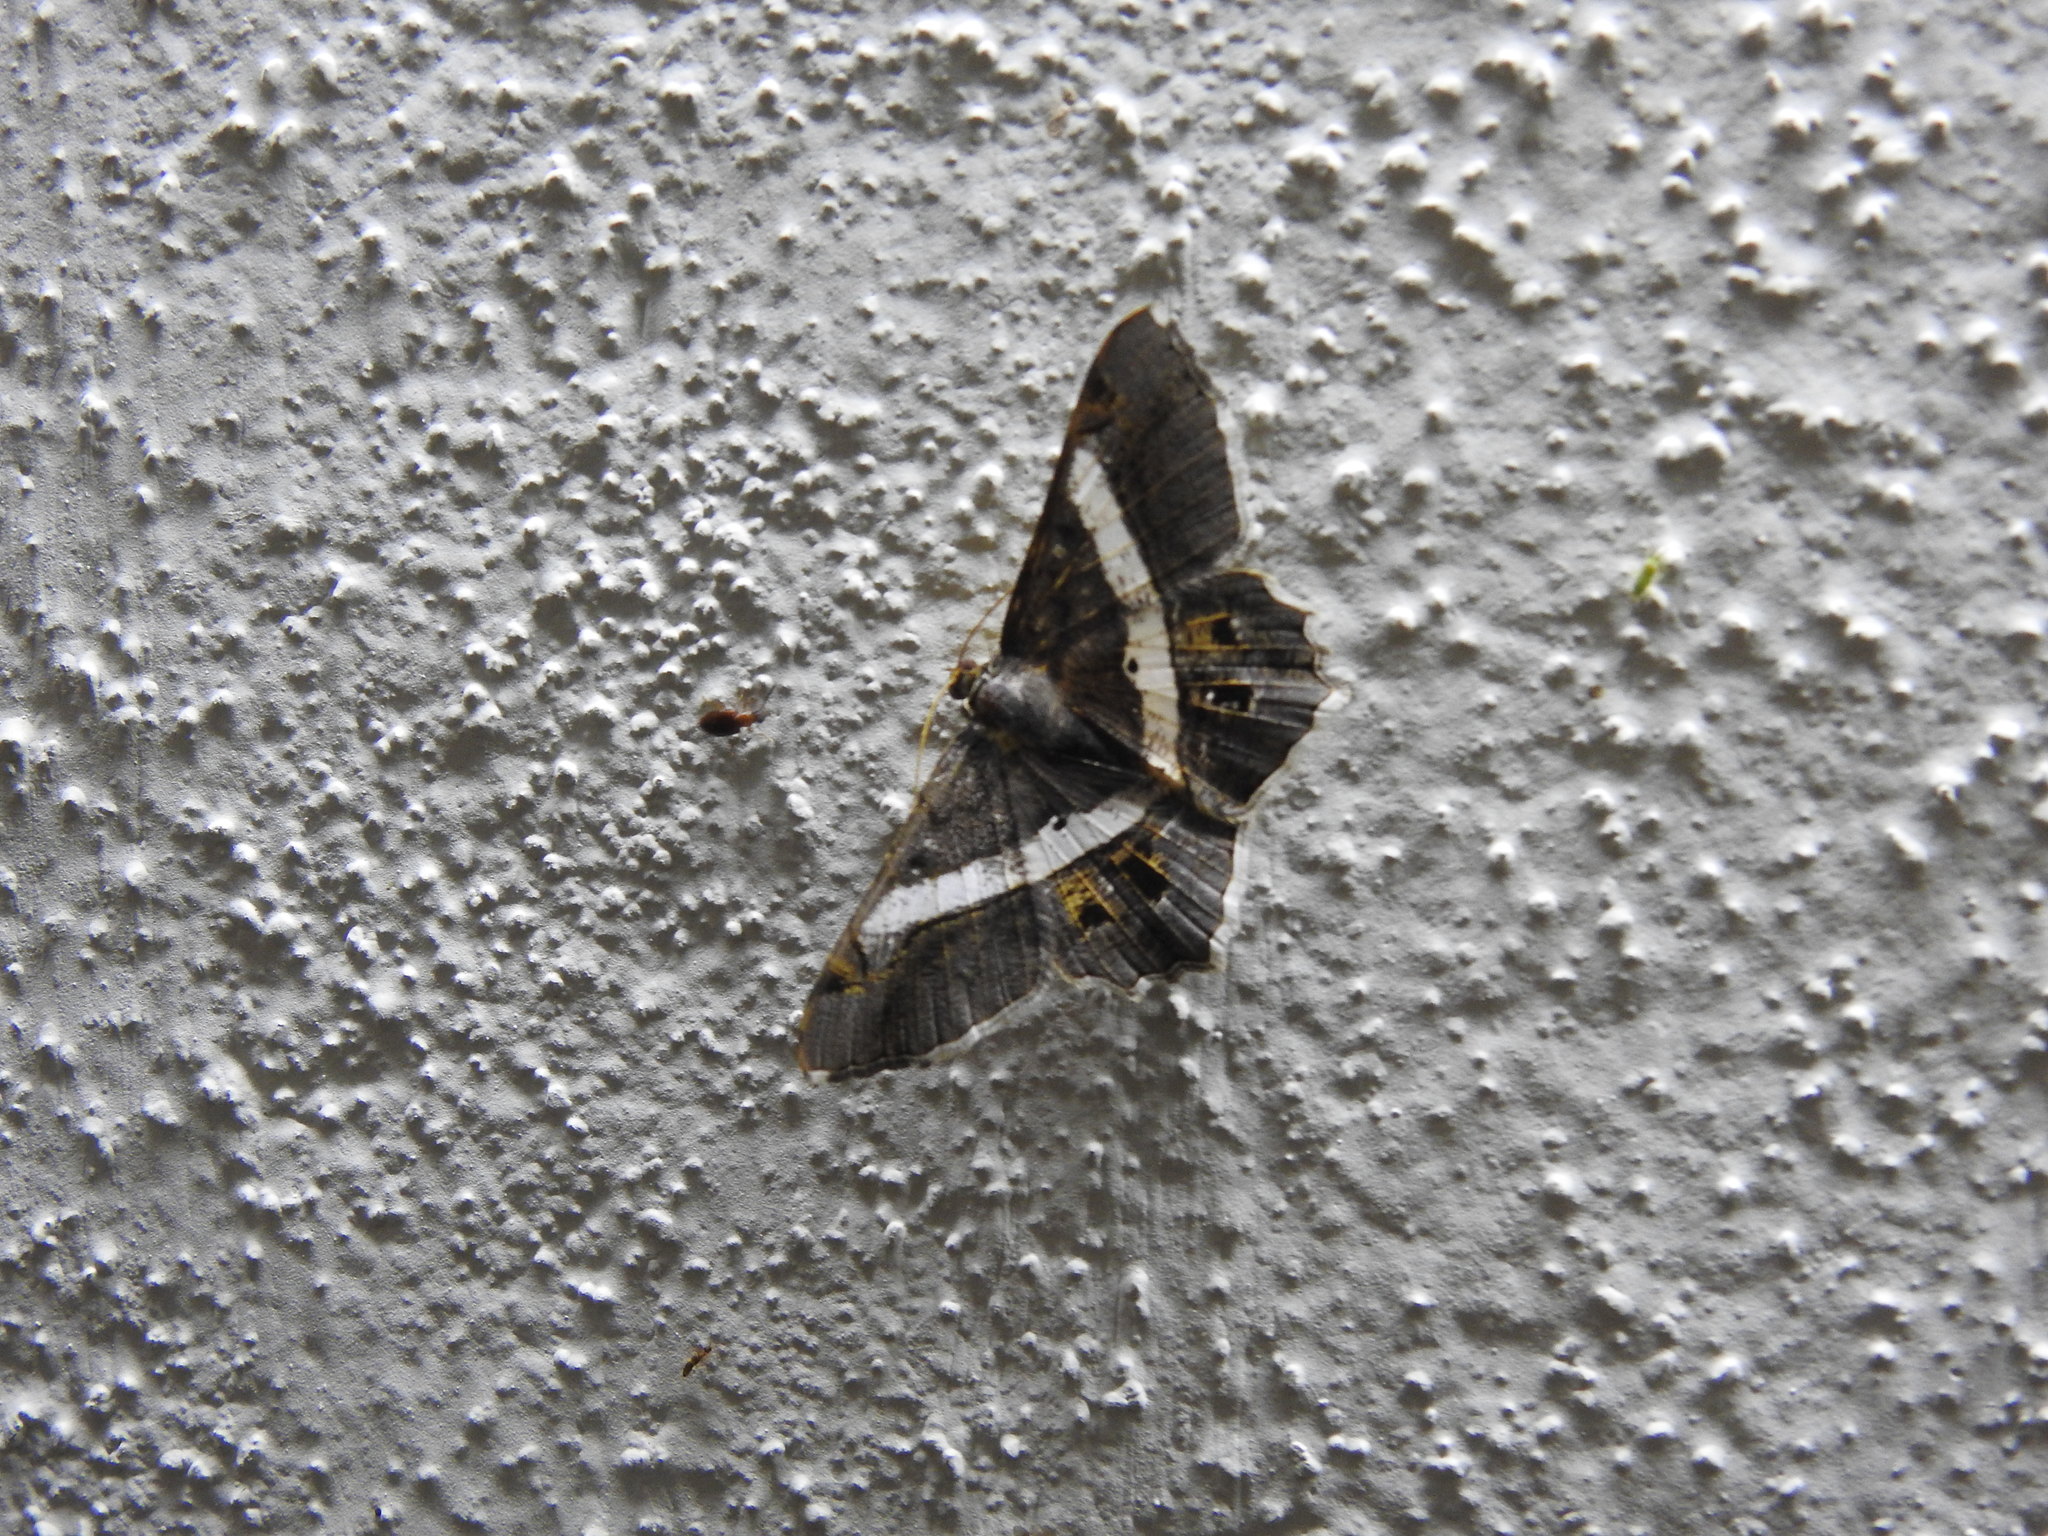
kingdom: Animalia
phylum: Arthropoda
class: Insecta
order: Lepidoptera
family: Geometridae
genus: Chiasmia
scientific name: Chiasmia eleonora
